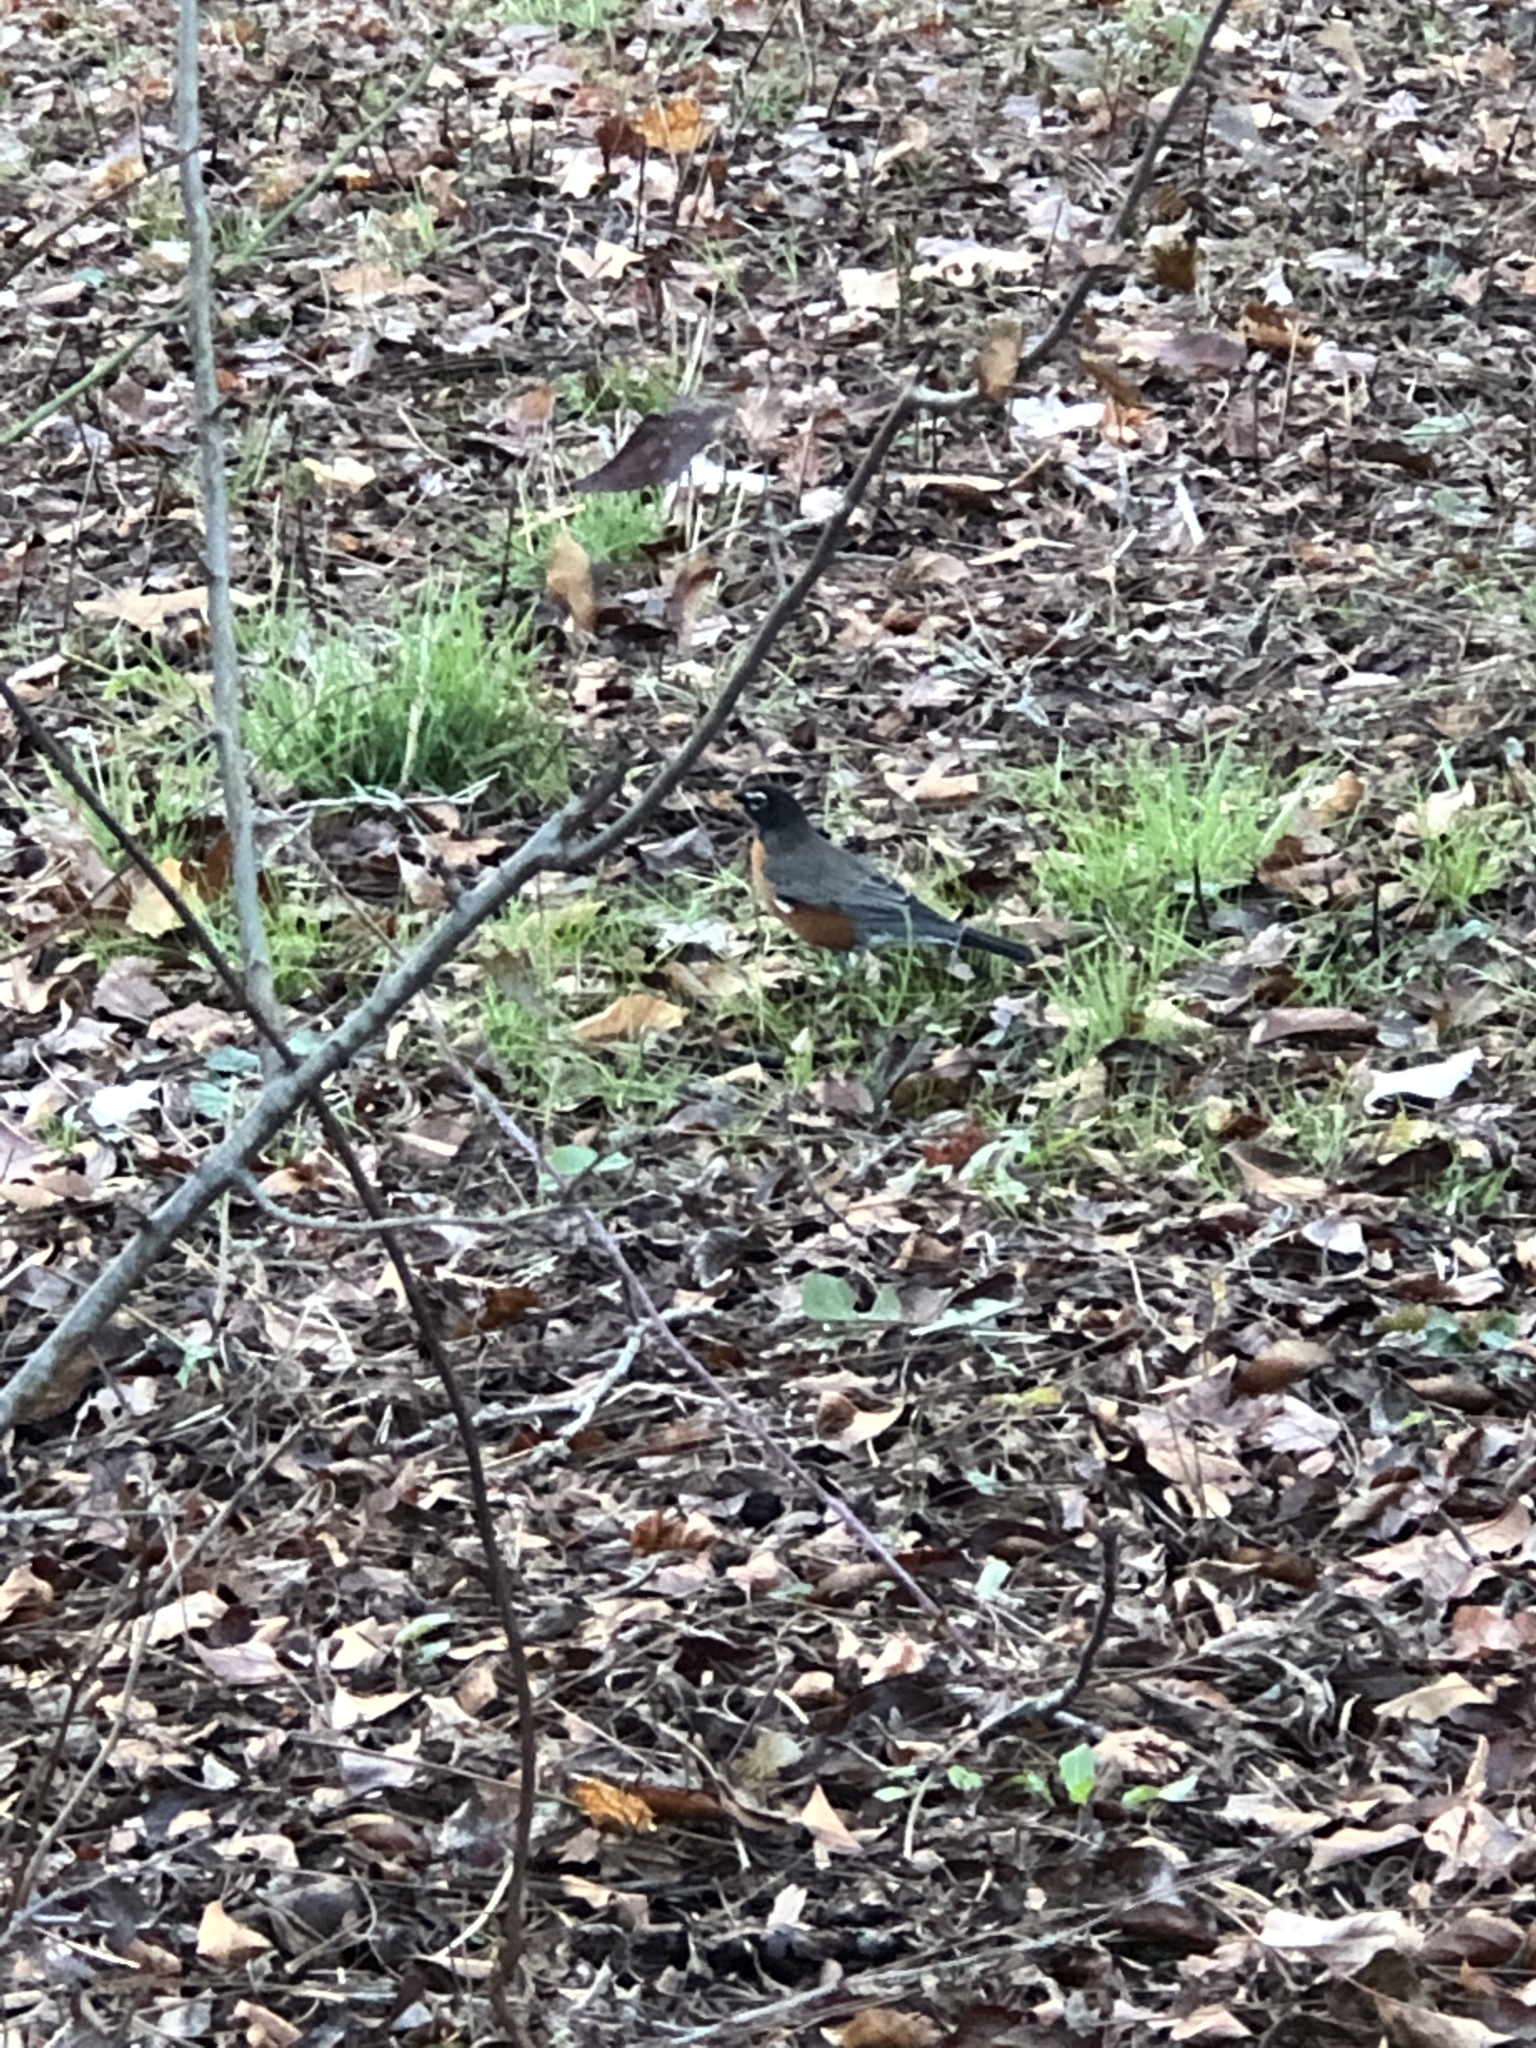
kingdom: Animalia
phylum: Chordata
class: Aves
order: Passeriformes
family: Turdidae
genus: Turdus
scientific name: Turdus migratorius
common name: American robin
